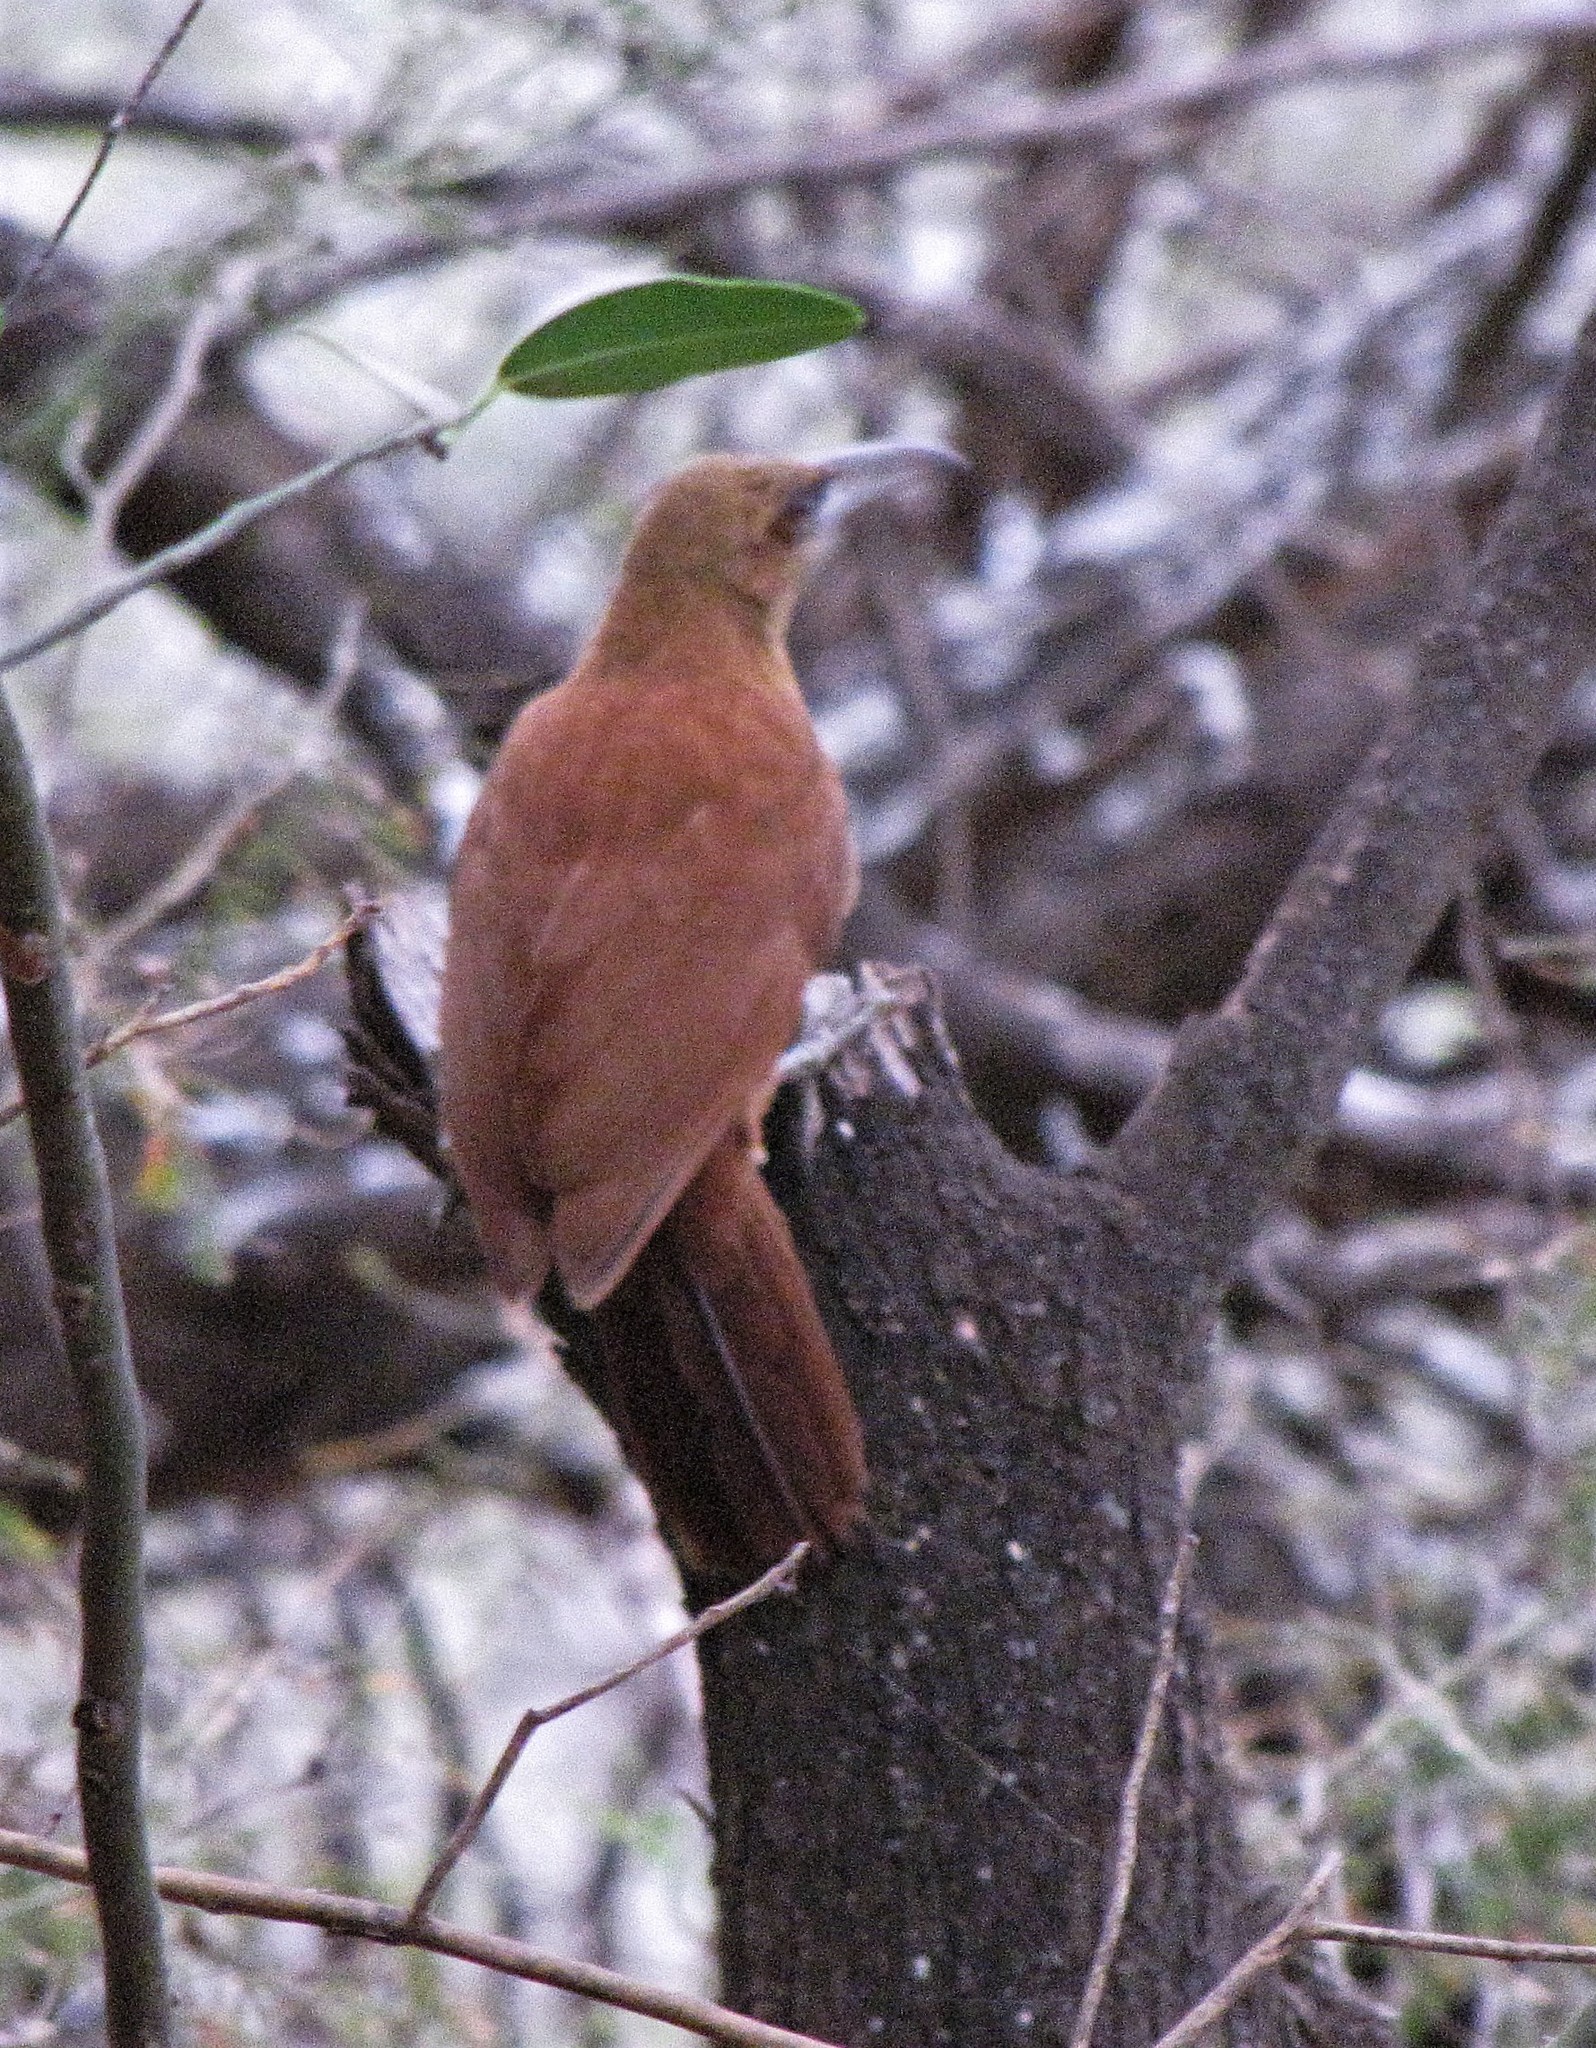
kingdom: Animalia
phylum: Chordata
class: Aves
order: Passeriformes
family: Furnariidae
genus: Xiphocolaptes
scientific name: Xiphocolaptes major
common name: Great rufous woodcreeper
